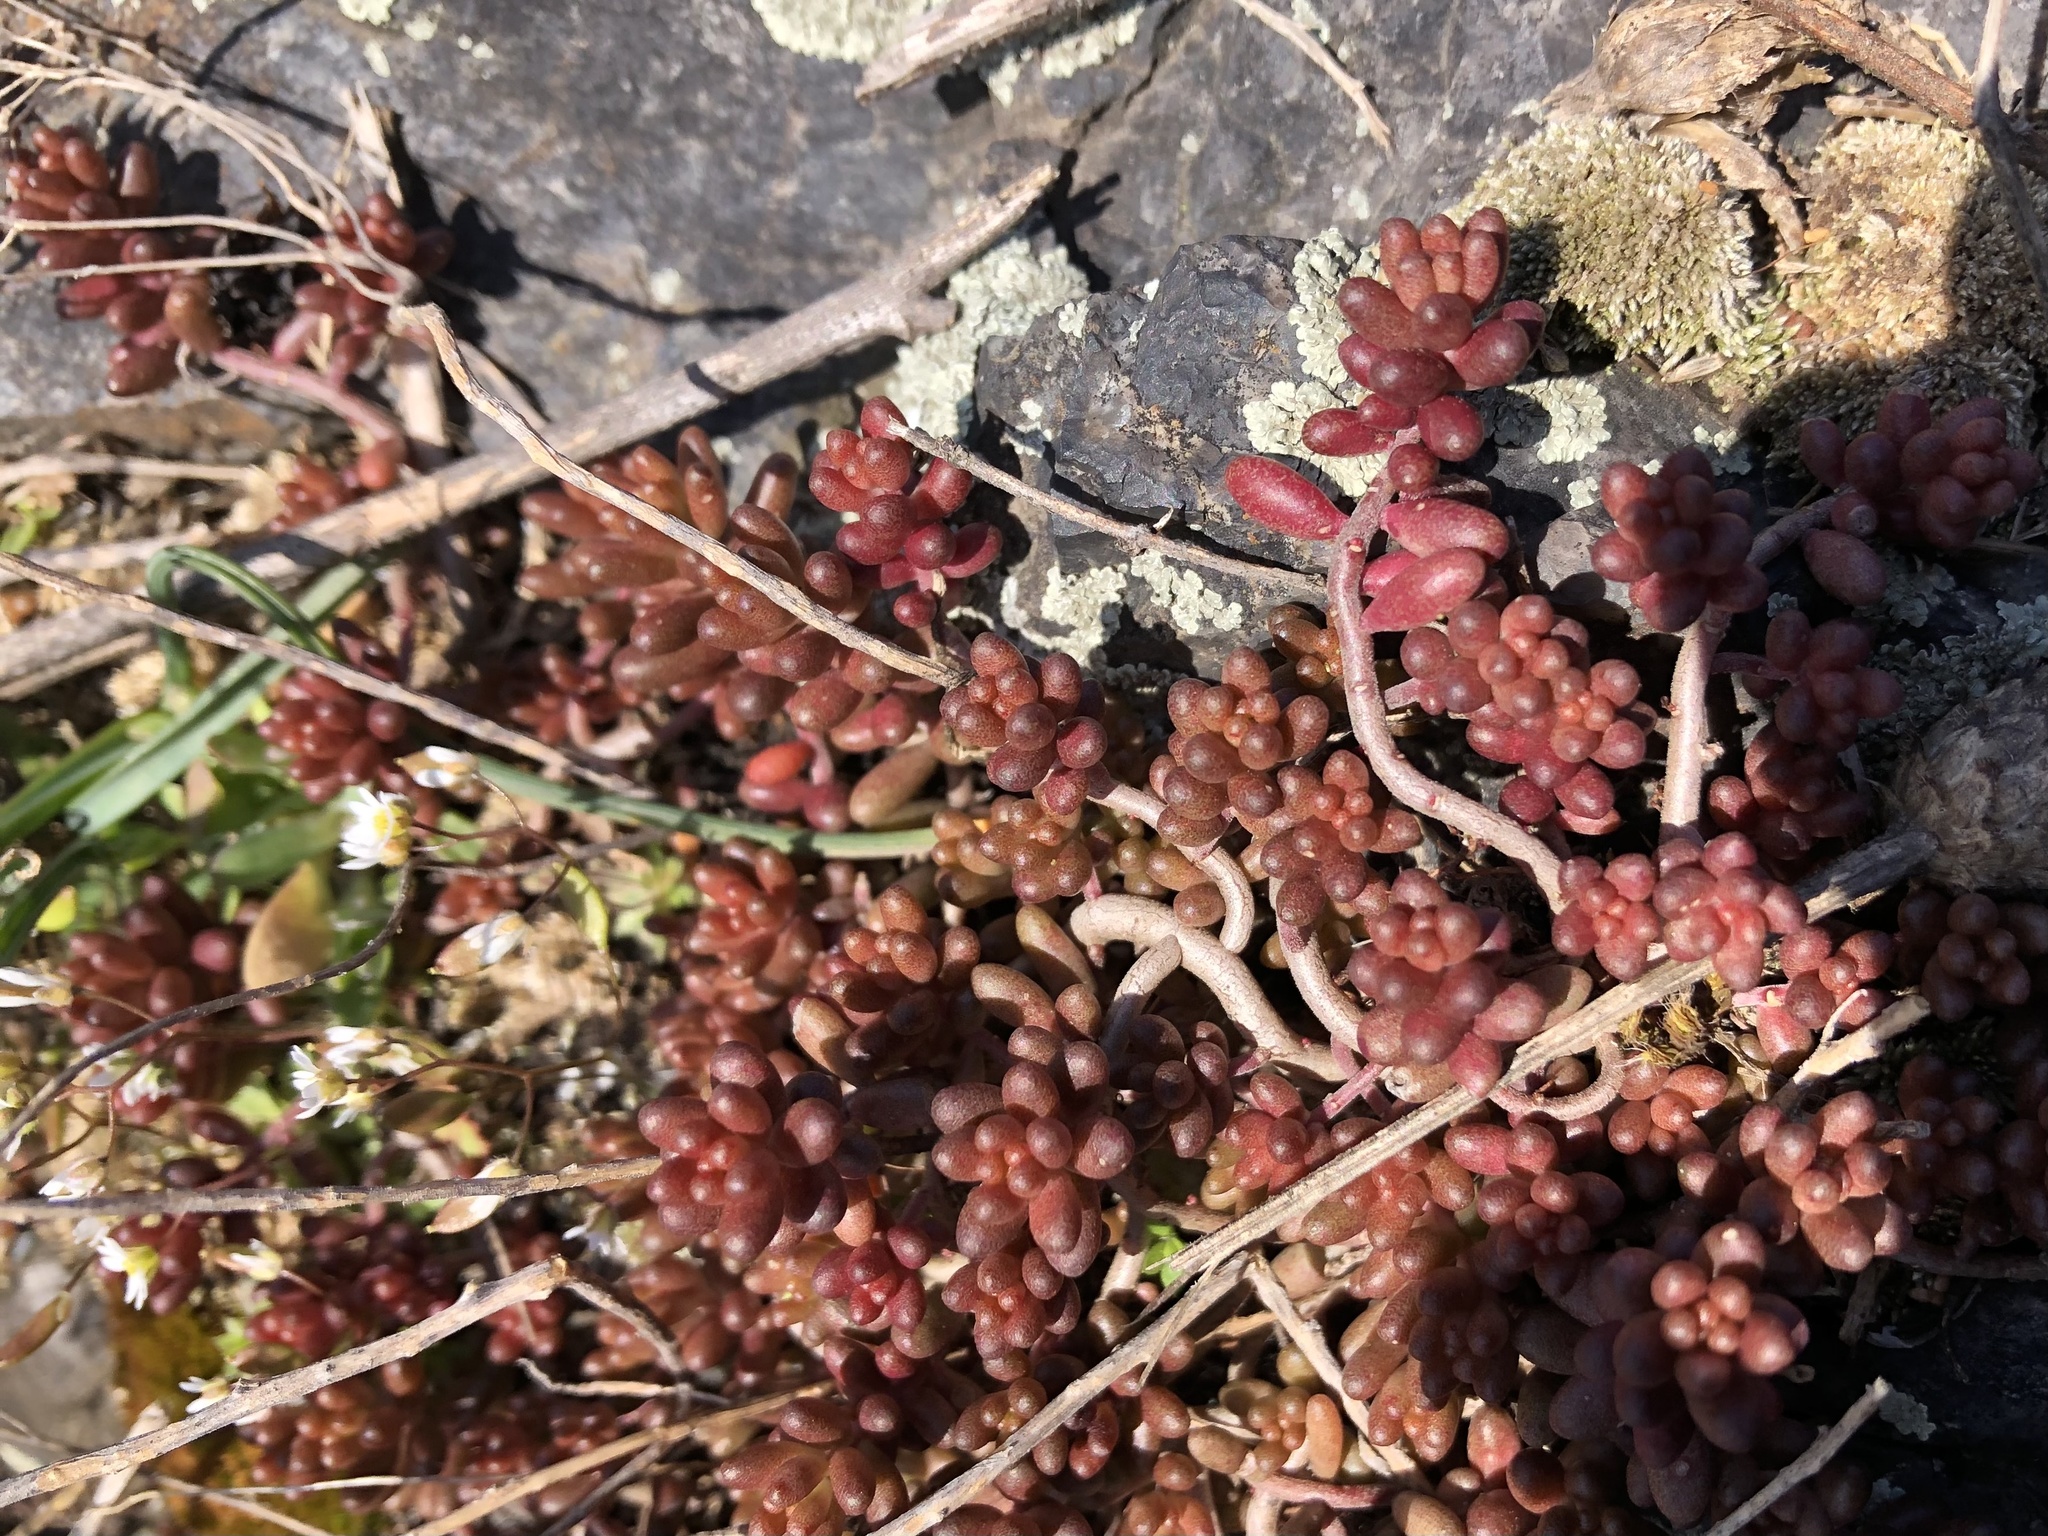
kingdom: Plantae
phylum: Tracheophyta
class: Magnoliopsida
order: Saxifragales
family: Crassulaceae
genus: Sedum
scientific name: Sedum album
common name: White stonecrop
